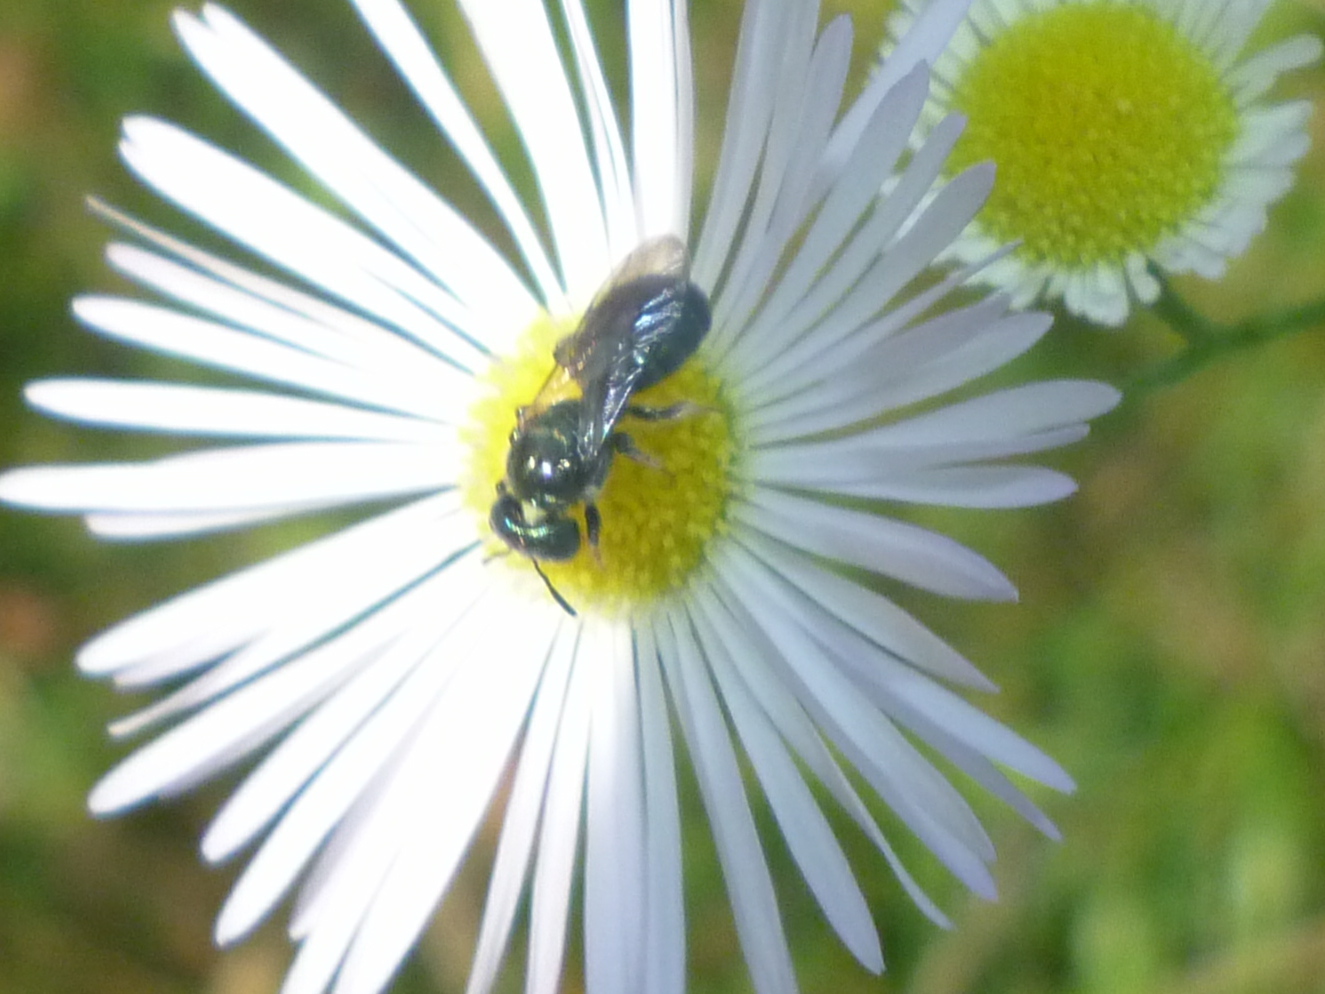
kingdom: Animalia
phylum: Arthropoda
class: Insecta
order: Hymenoptera
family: Apidae
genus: Zadontomerus
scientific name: Zadontomerus
